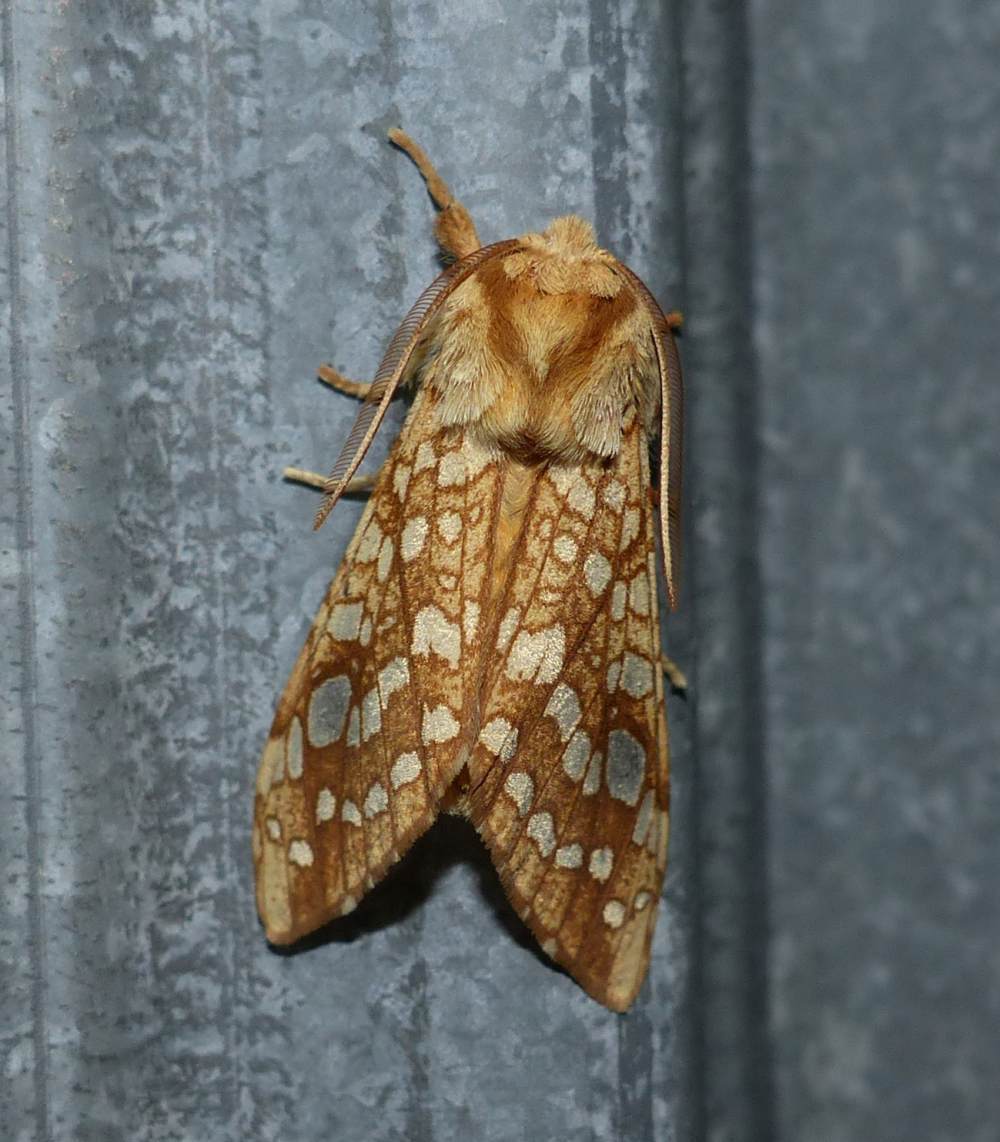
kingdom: Animalia
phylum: Arthropoda
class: Insecta
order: Lepidoptera
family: Erebidae
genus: Lophocampa
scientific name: Lophocampa caryae
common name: Hickory tussock moth
